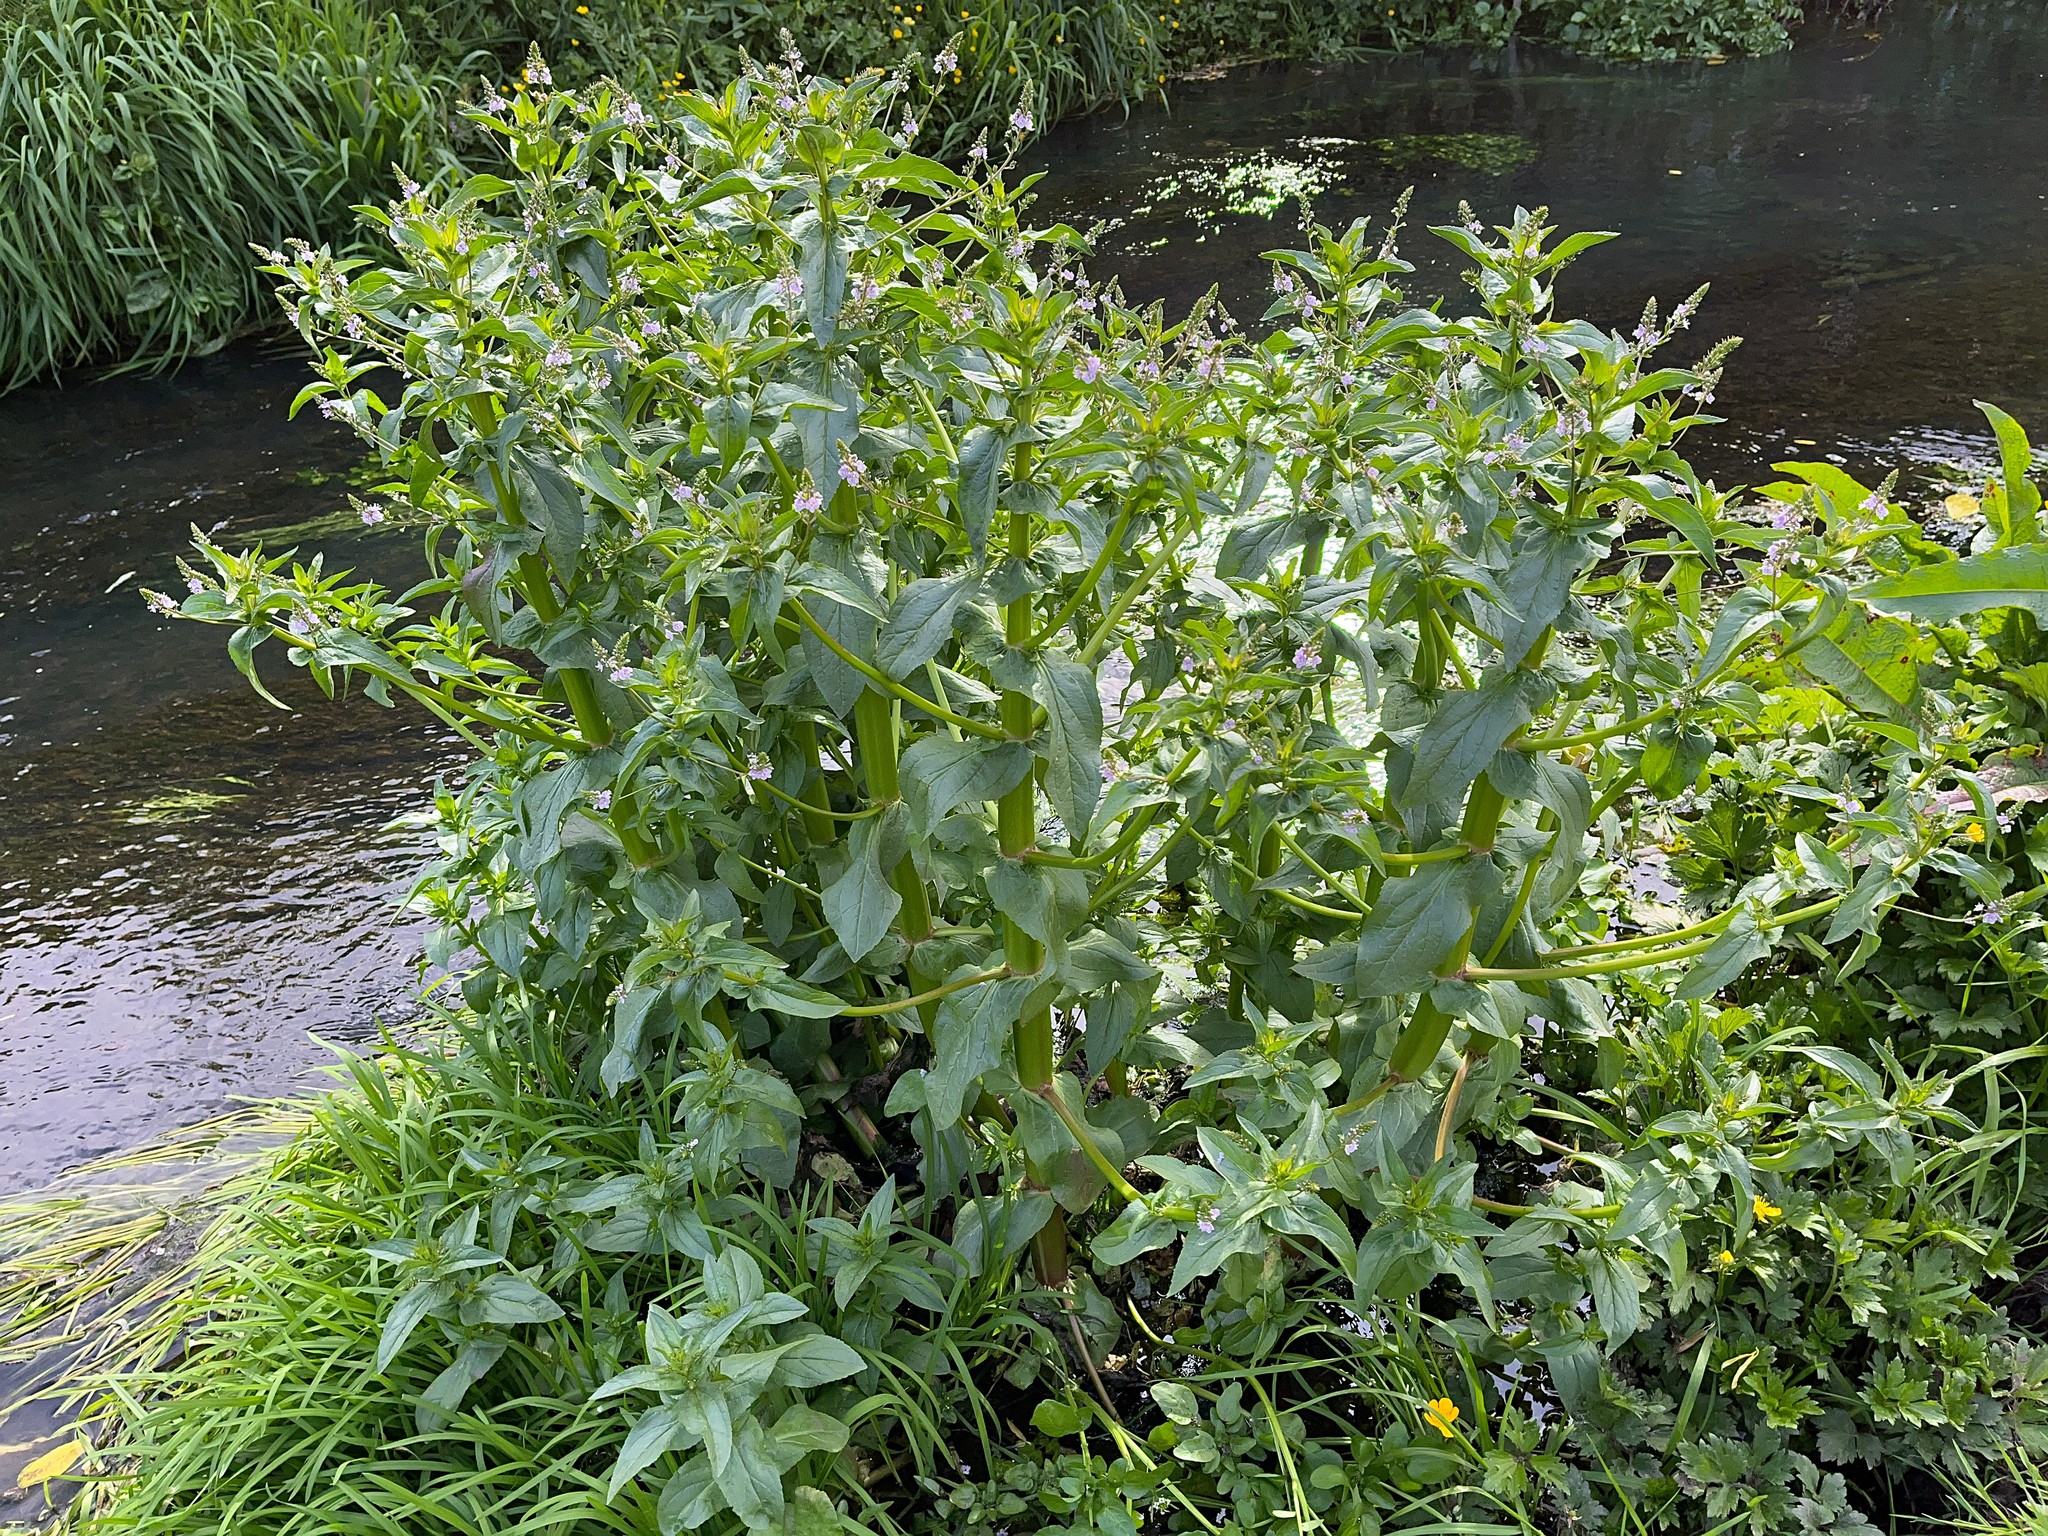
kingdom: Plantae
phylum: Tracheophyta
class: Magnoliopsida
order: Lamiales
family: Plantaginaceae
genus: Veronica
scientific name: Veronica anagallis-aquatica
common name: Water speedwell
